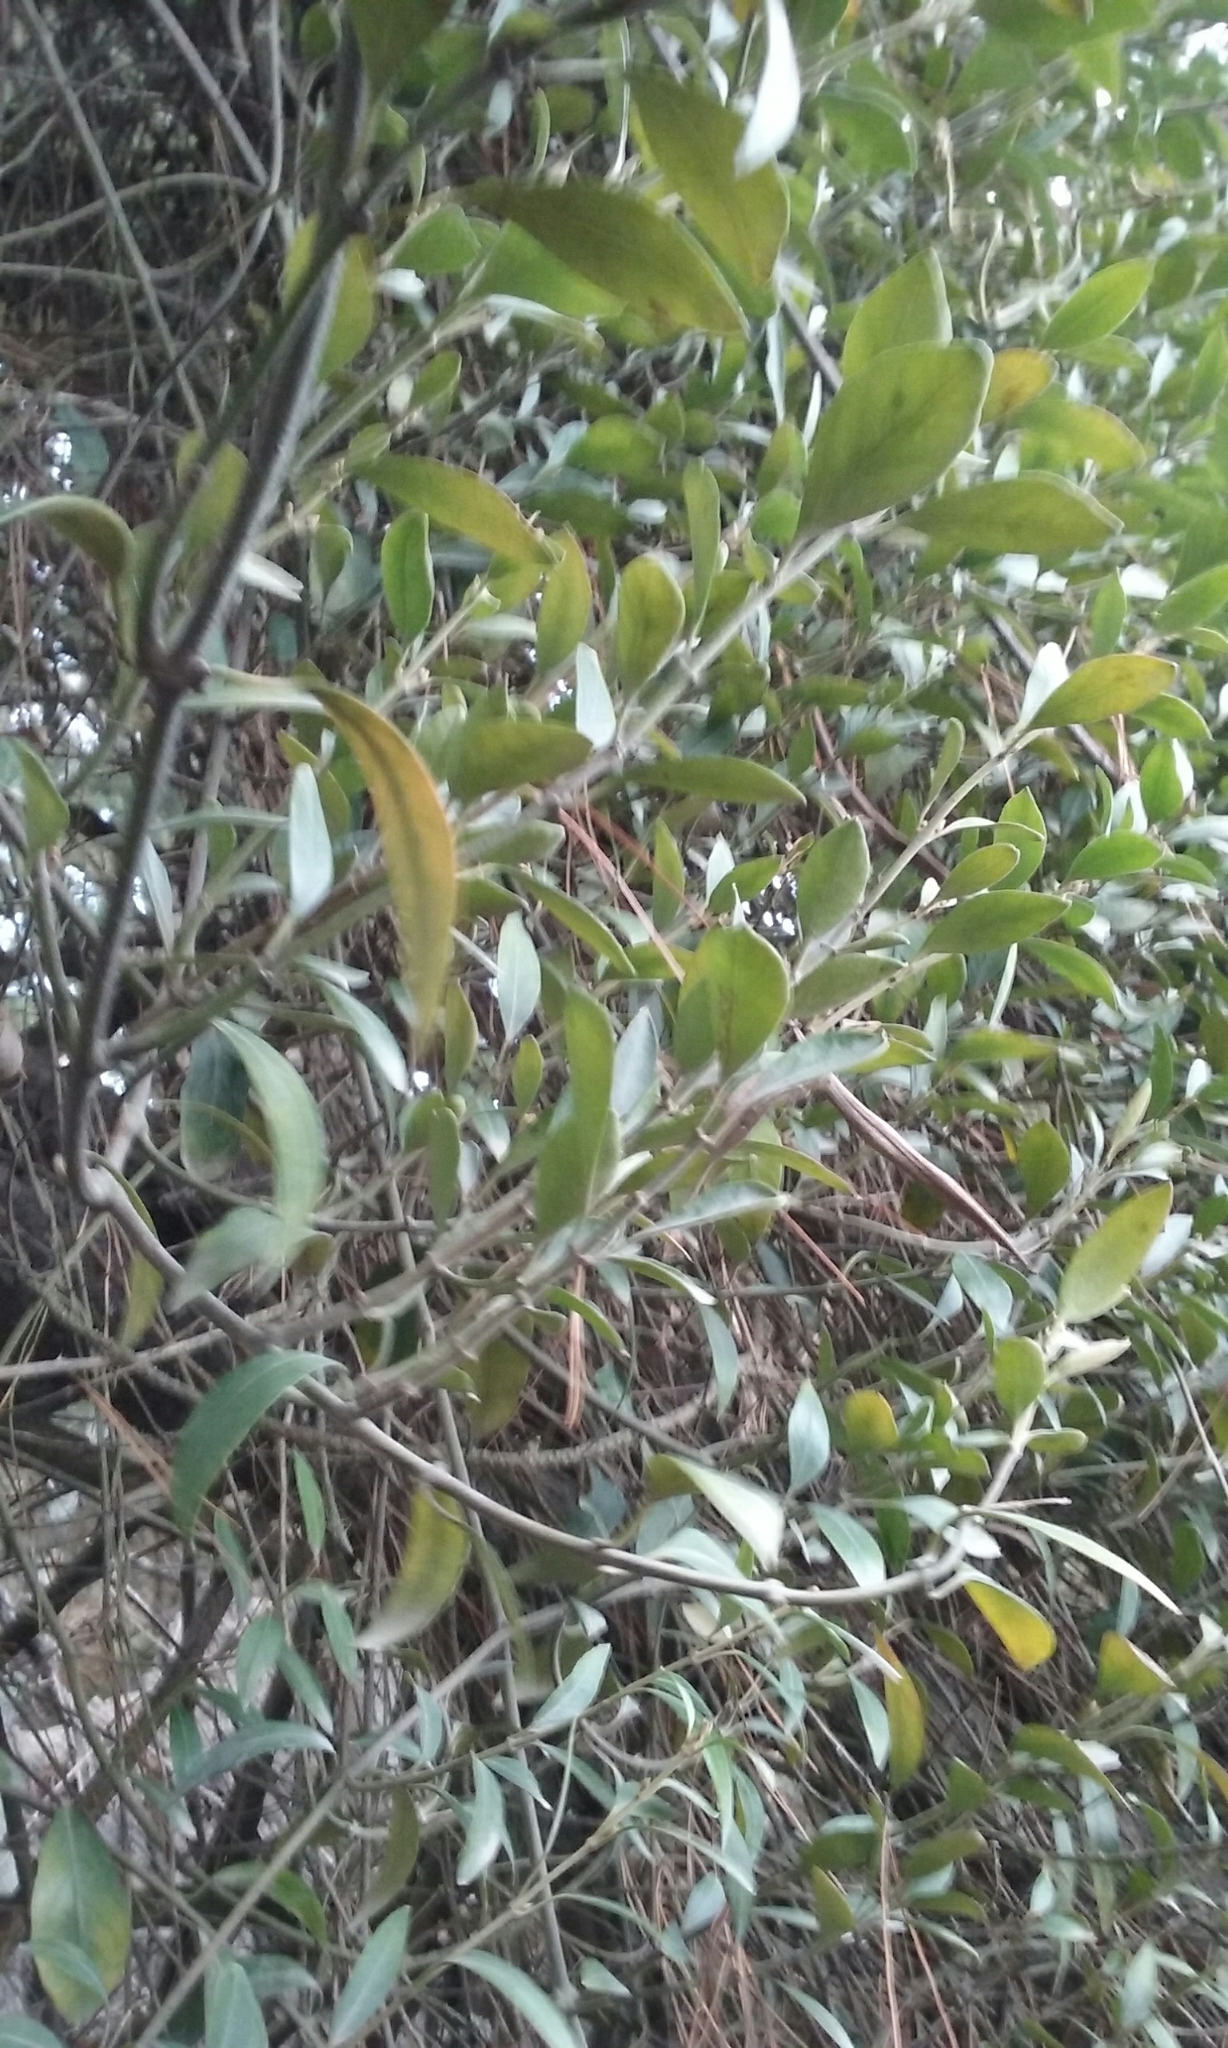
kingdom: Plantae
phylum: Tracheophyta
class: Magnoliopsida
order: Gentianales
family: Apocynaceae
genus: Parsonsia
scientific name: Parsonsia heterophylla
